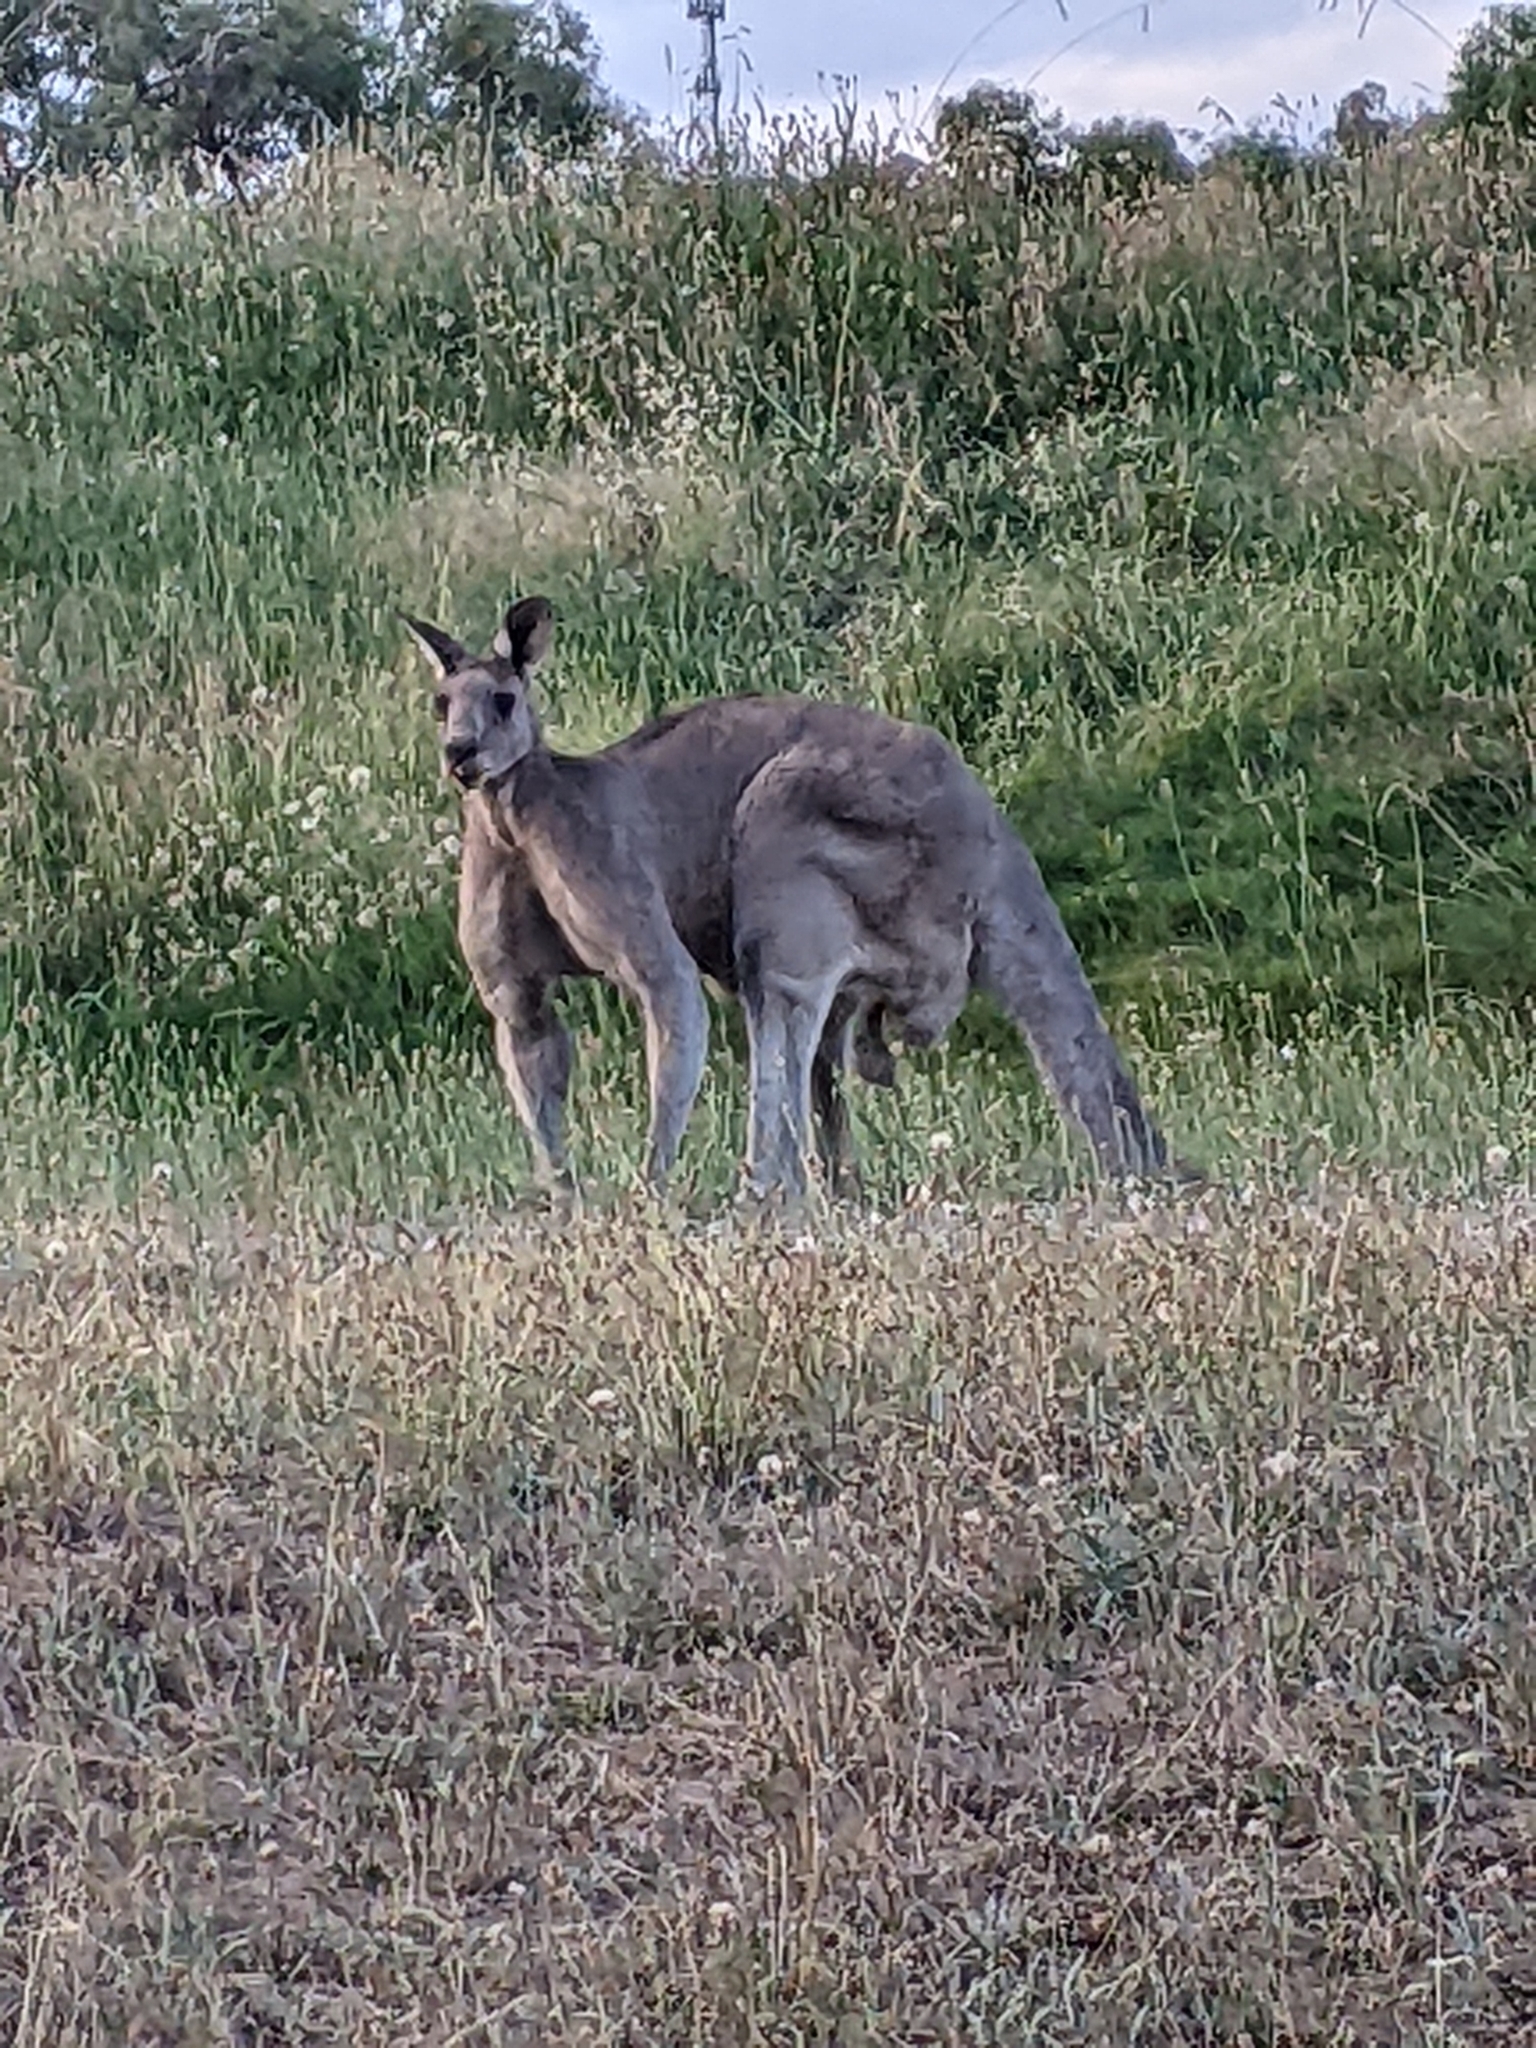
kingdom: Animalia
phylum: Chordata
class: Mammalia
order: Diprotodontia
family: Macropodidae
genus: Macropus
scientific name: Macropus giganteus
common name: Eastern grey kangaroo
